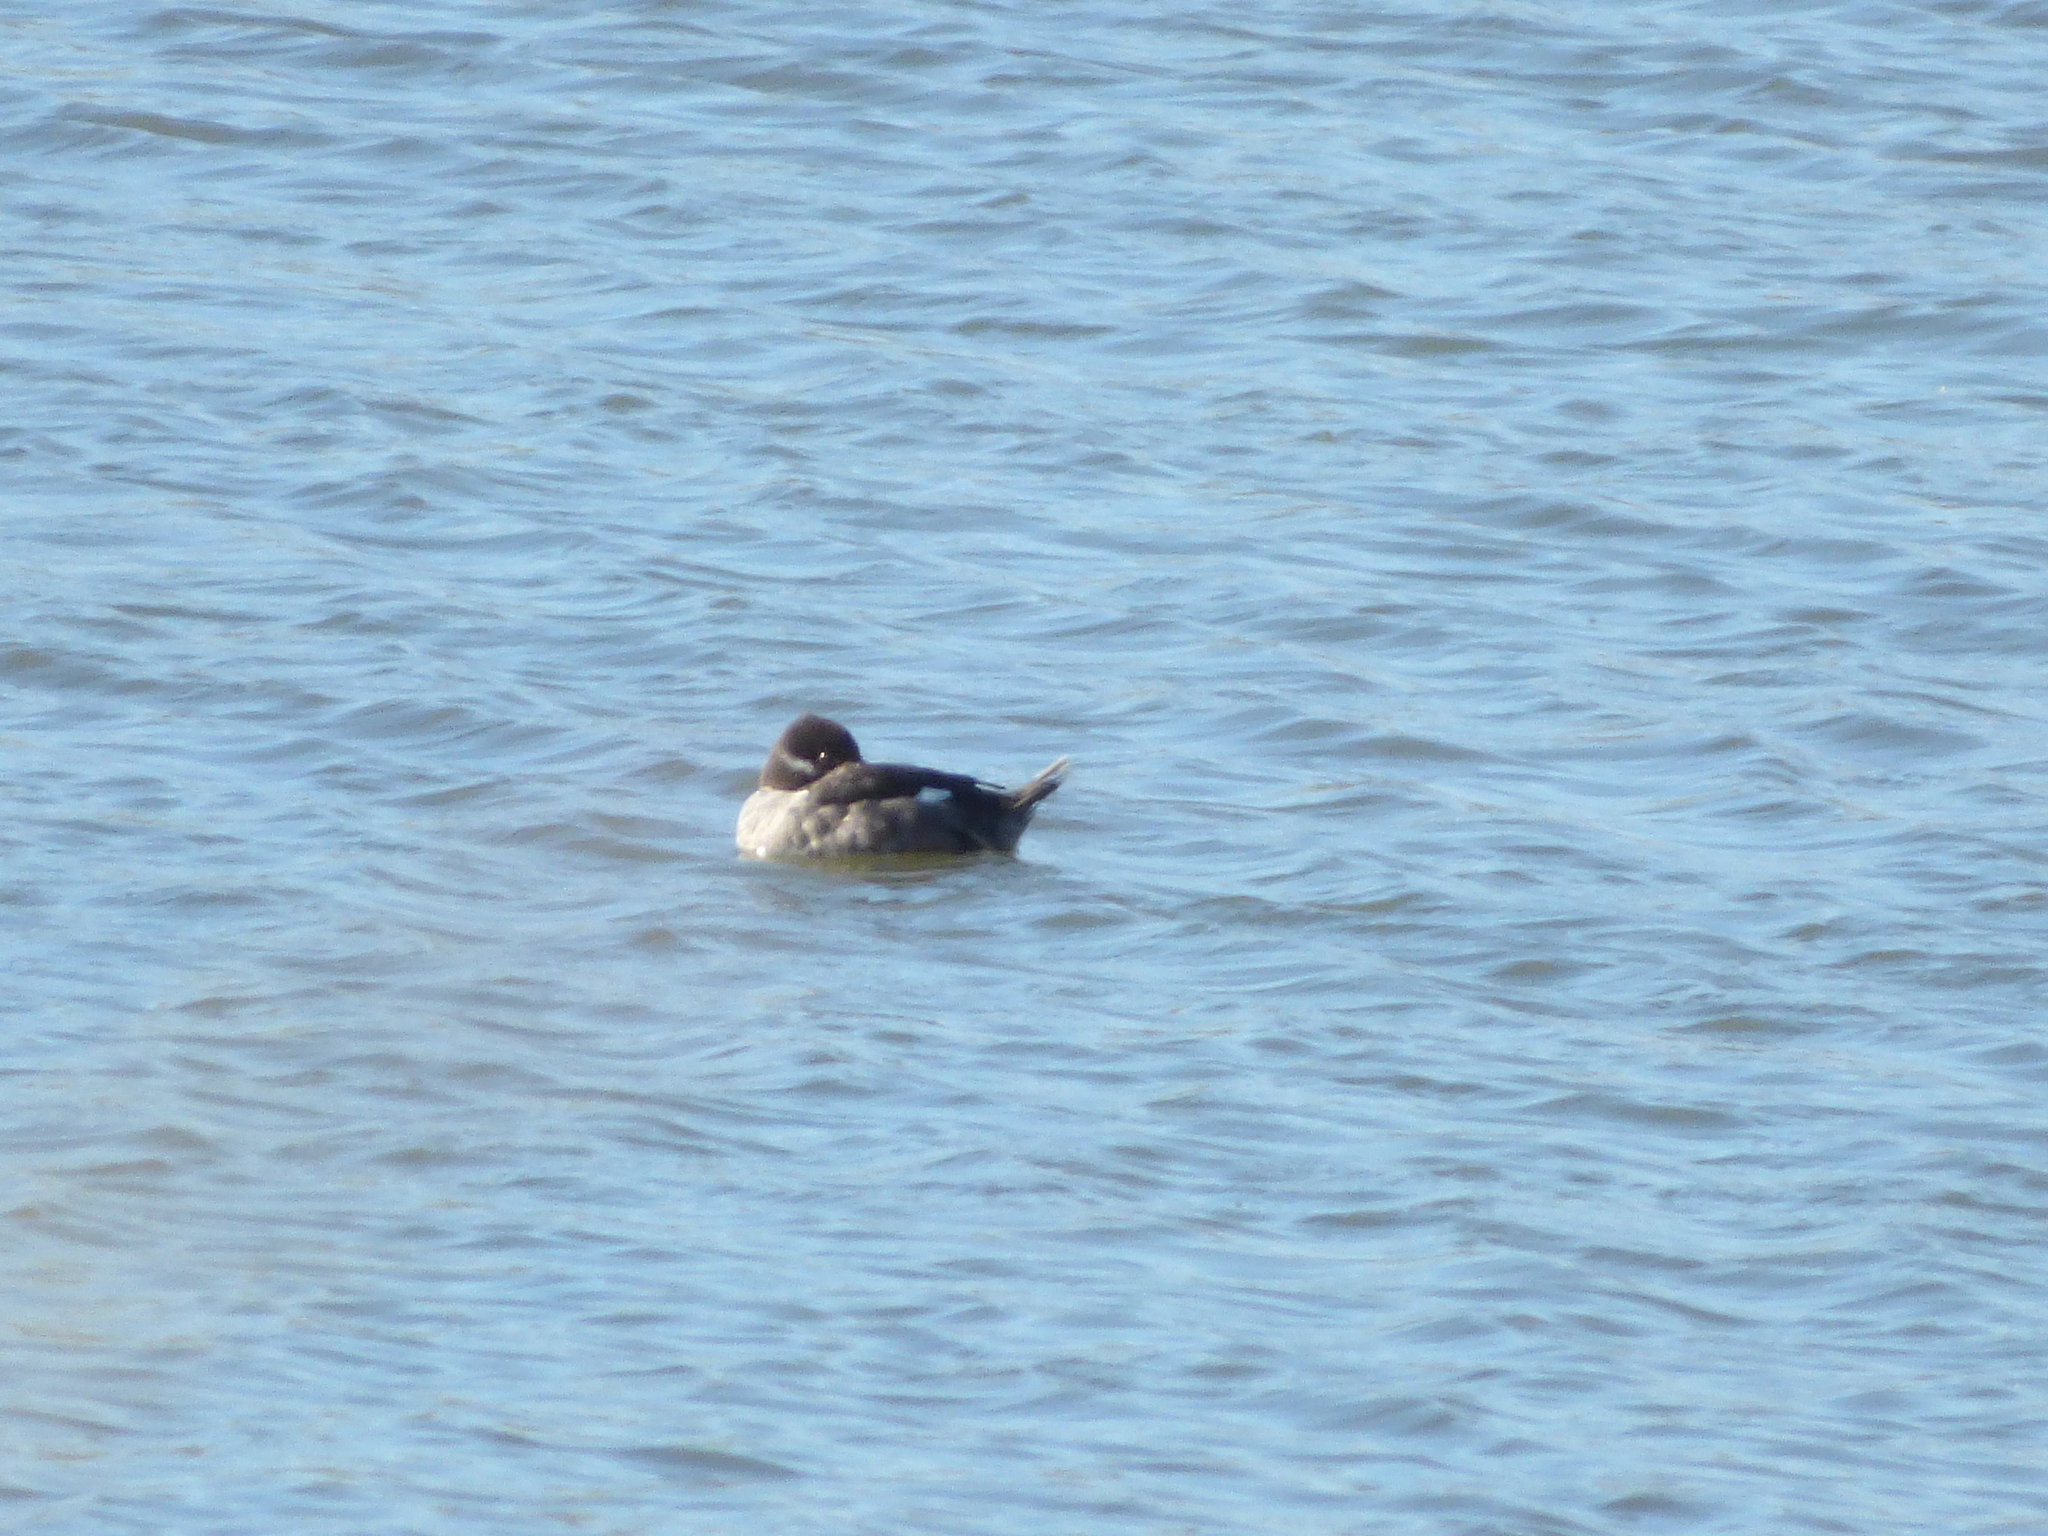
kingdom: Animalia
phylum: Chordata
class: Aves
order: Anseriformes
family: Anatidae
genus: Bucephala
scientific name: Bucephala albeola
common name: Bufflehead
